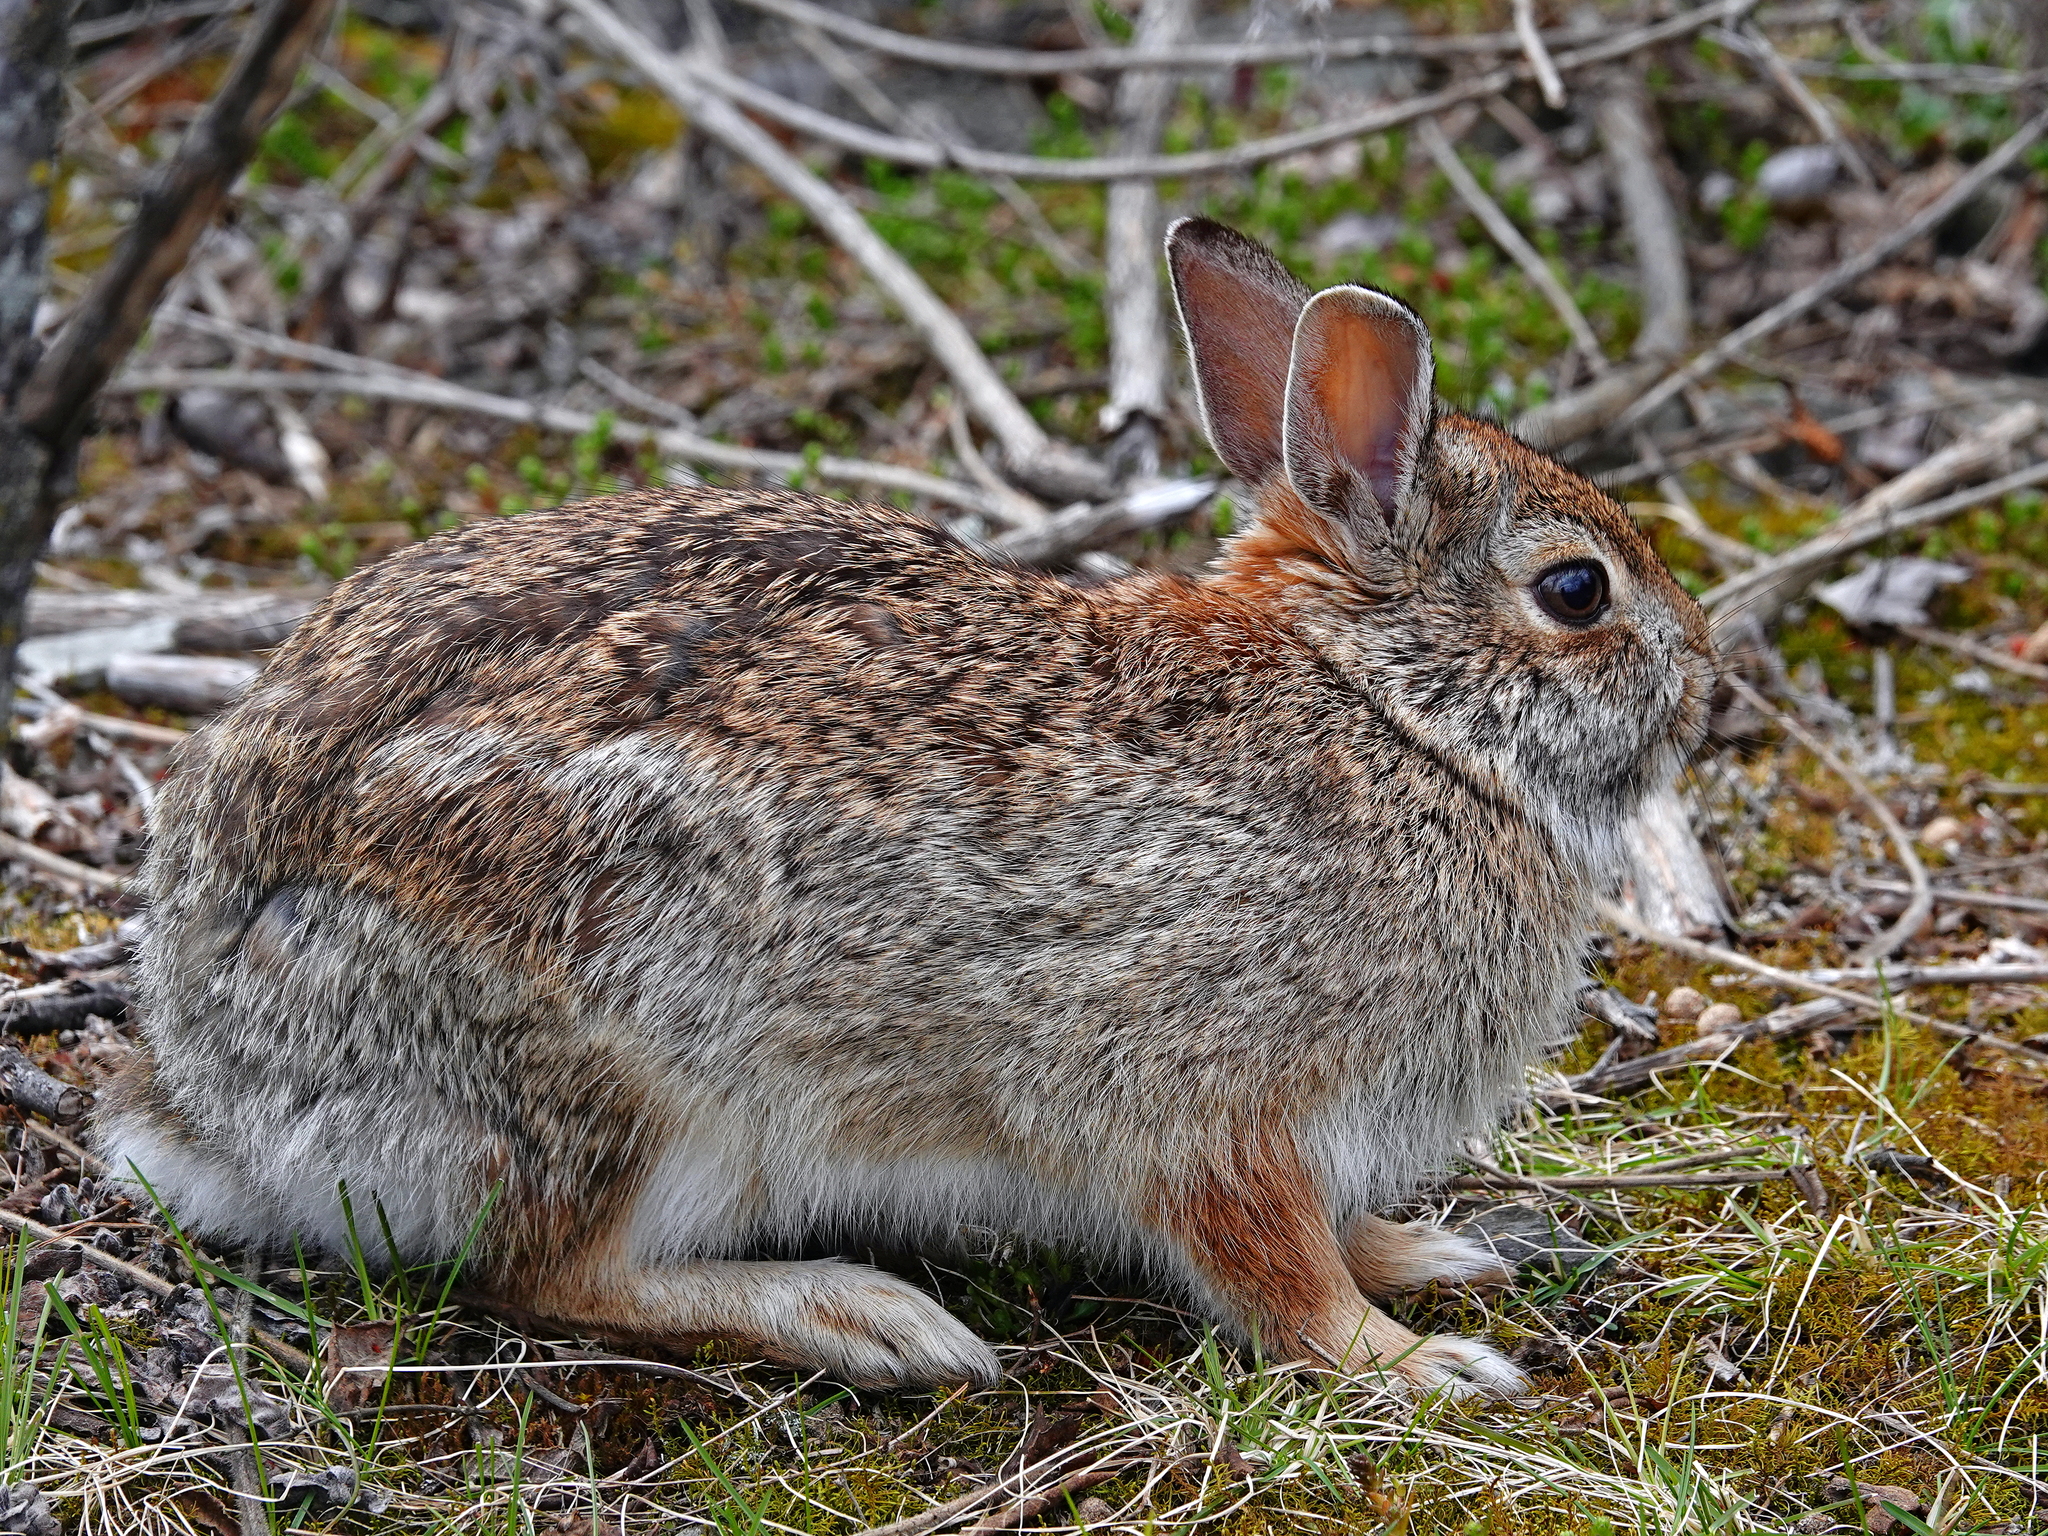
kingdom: Animalia
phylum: Chordata
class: Mammalia
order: Lagomorpha
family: Leporidae
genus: Sylvilagus
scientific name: Sylvilagus floridanus
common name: Eastern cottontail
